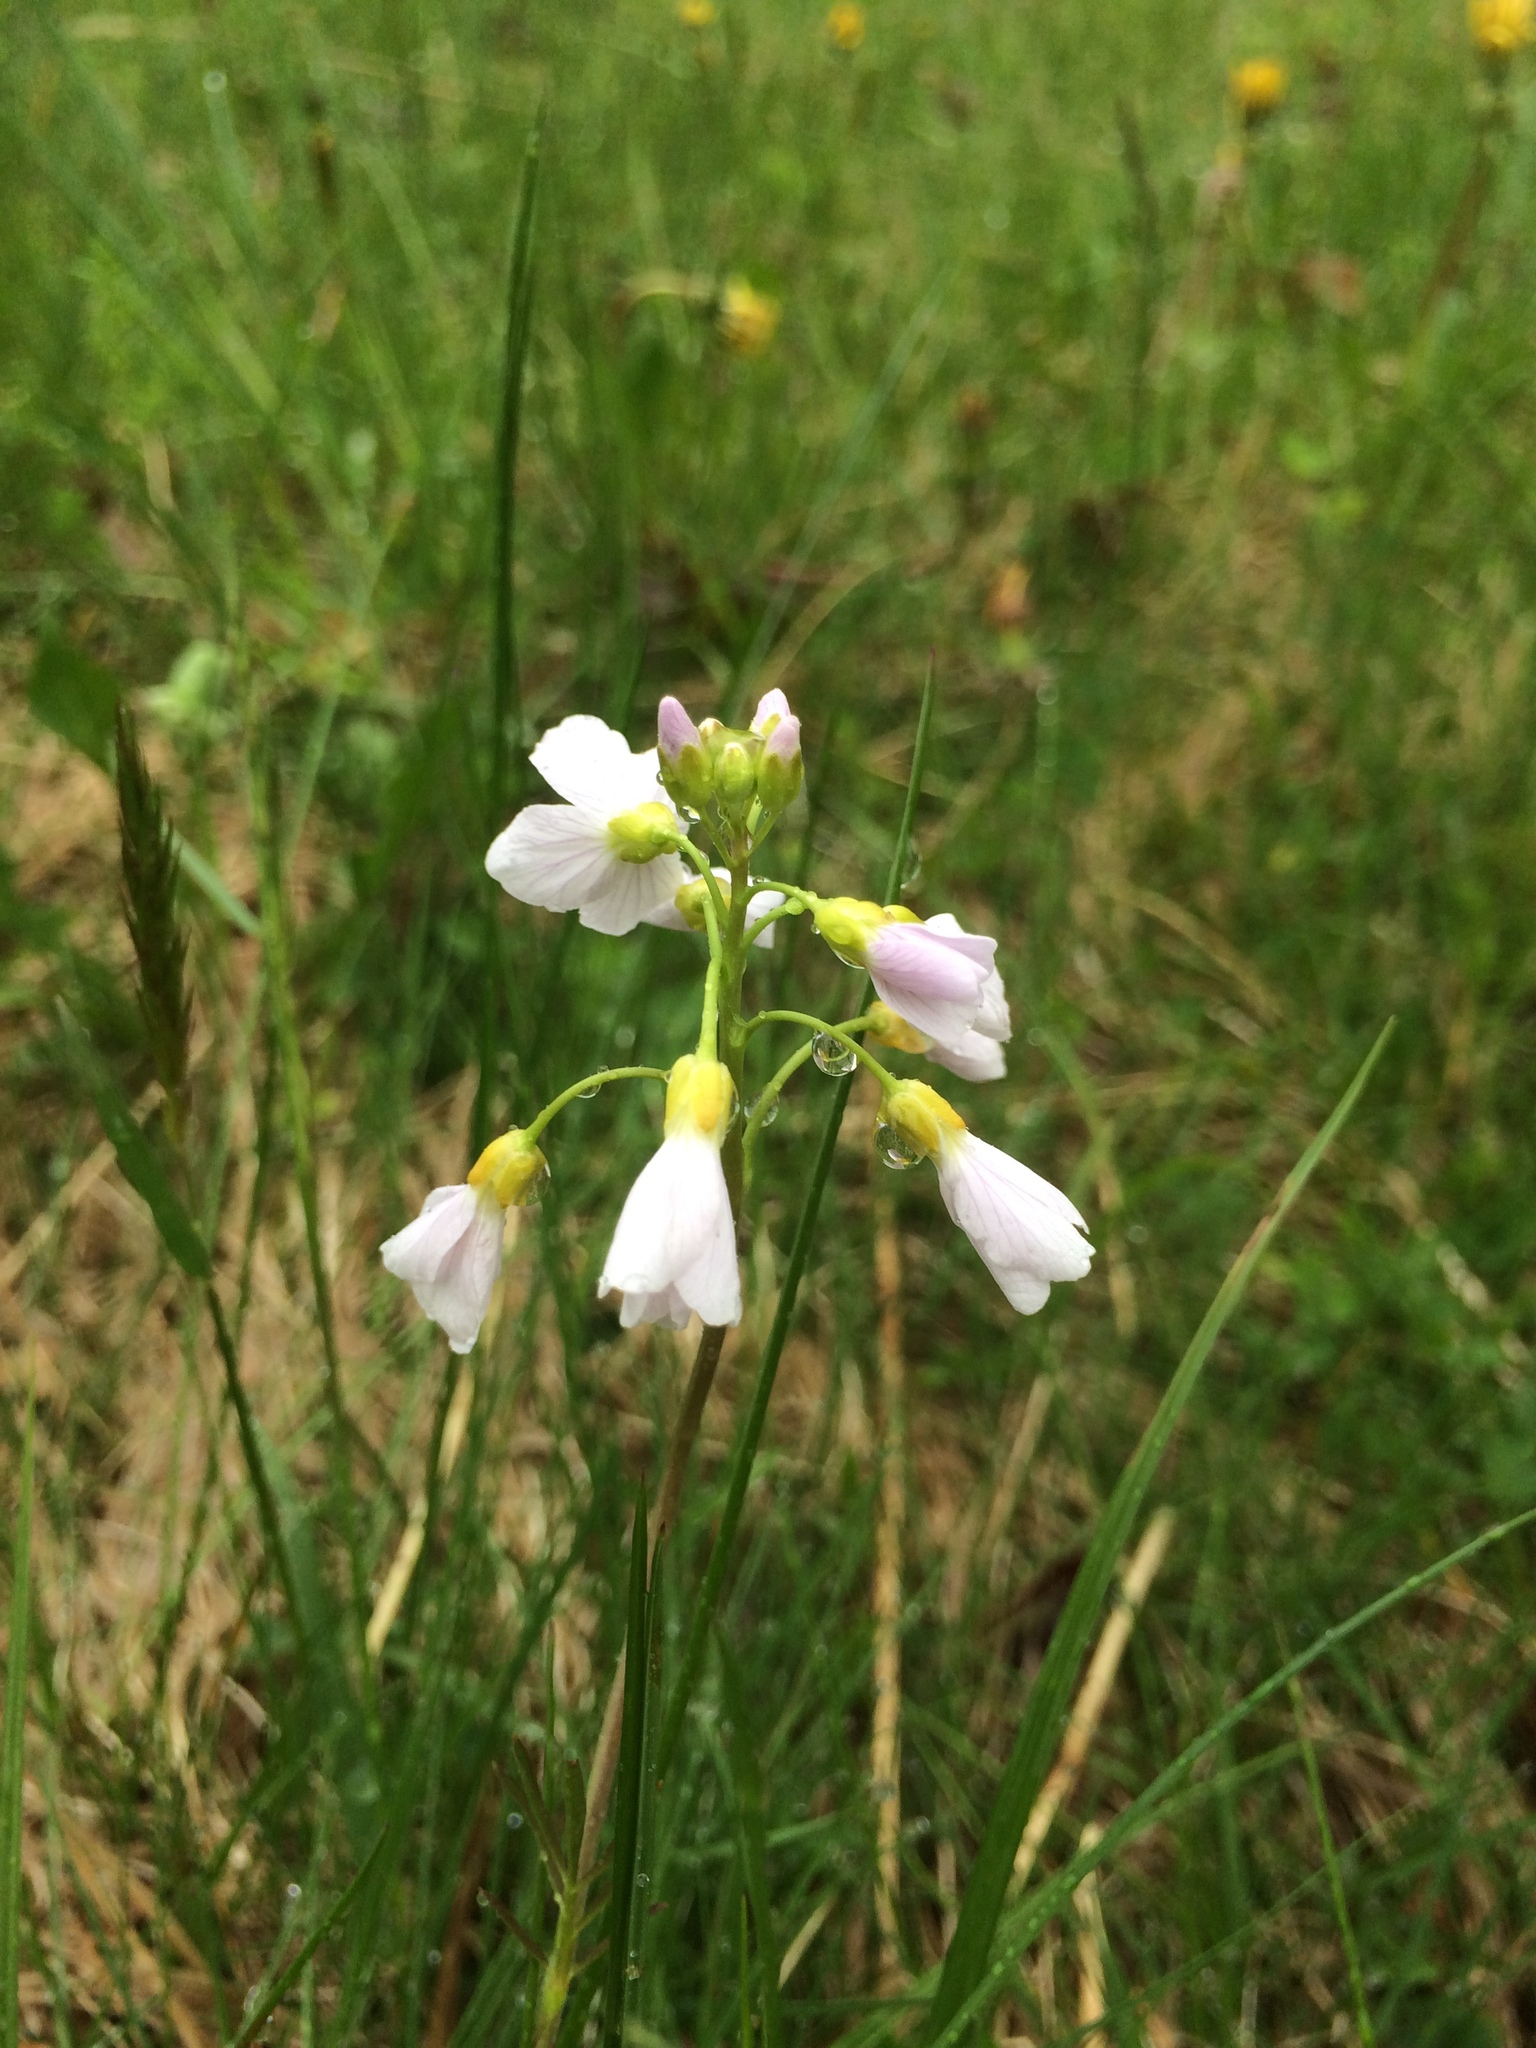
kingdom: Plantae
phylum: Tracheophyta
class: Magnoliopsida
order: Brassicales
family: Brassicaceae
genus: Cardamine
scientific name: Cardamine pratensis
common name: Cuckoo flower
